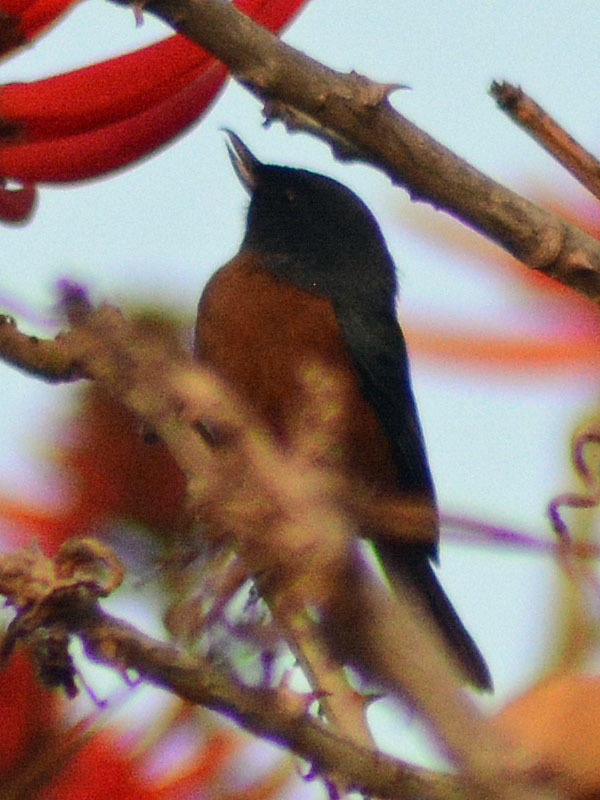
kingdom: Animalia
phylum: Chordata
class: Aves
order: Passeriformes
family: Thraupidae
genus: Diglossa
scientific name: Diglossa baritula
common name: Cinnamon-bellied flowerpiercer
